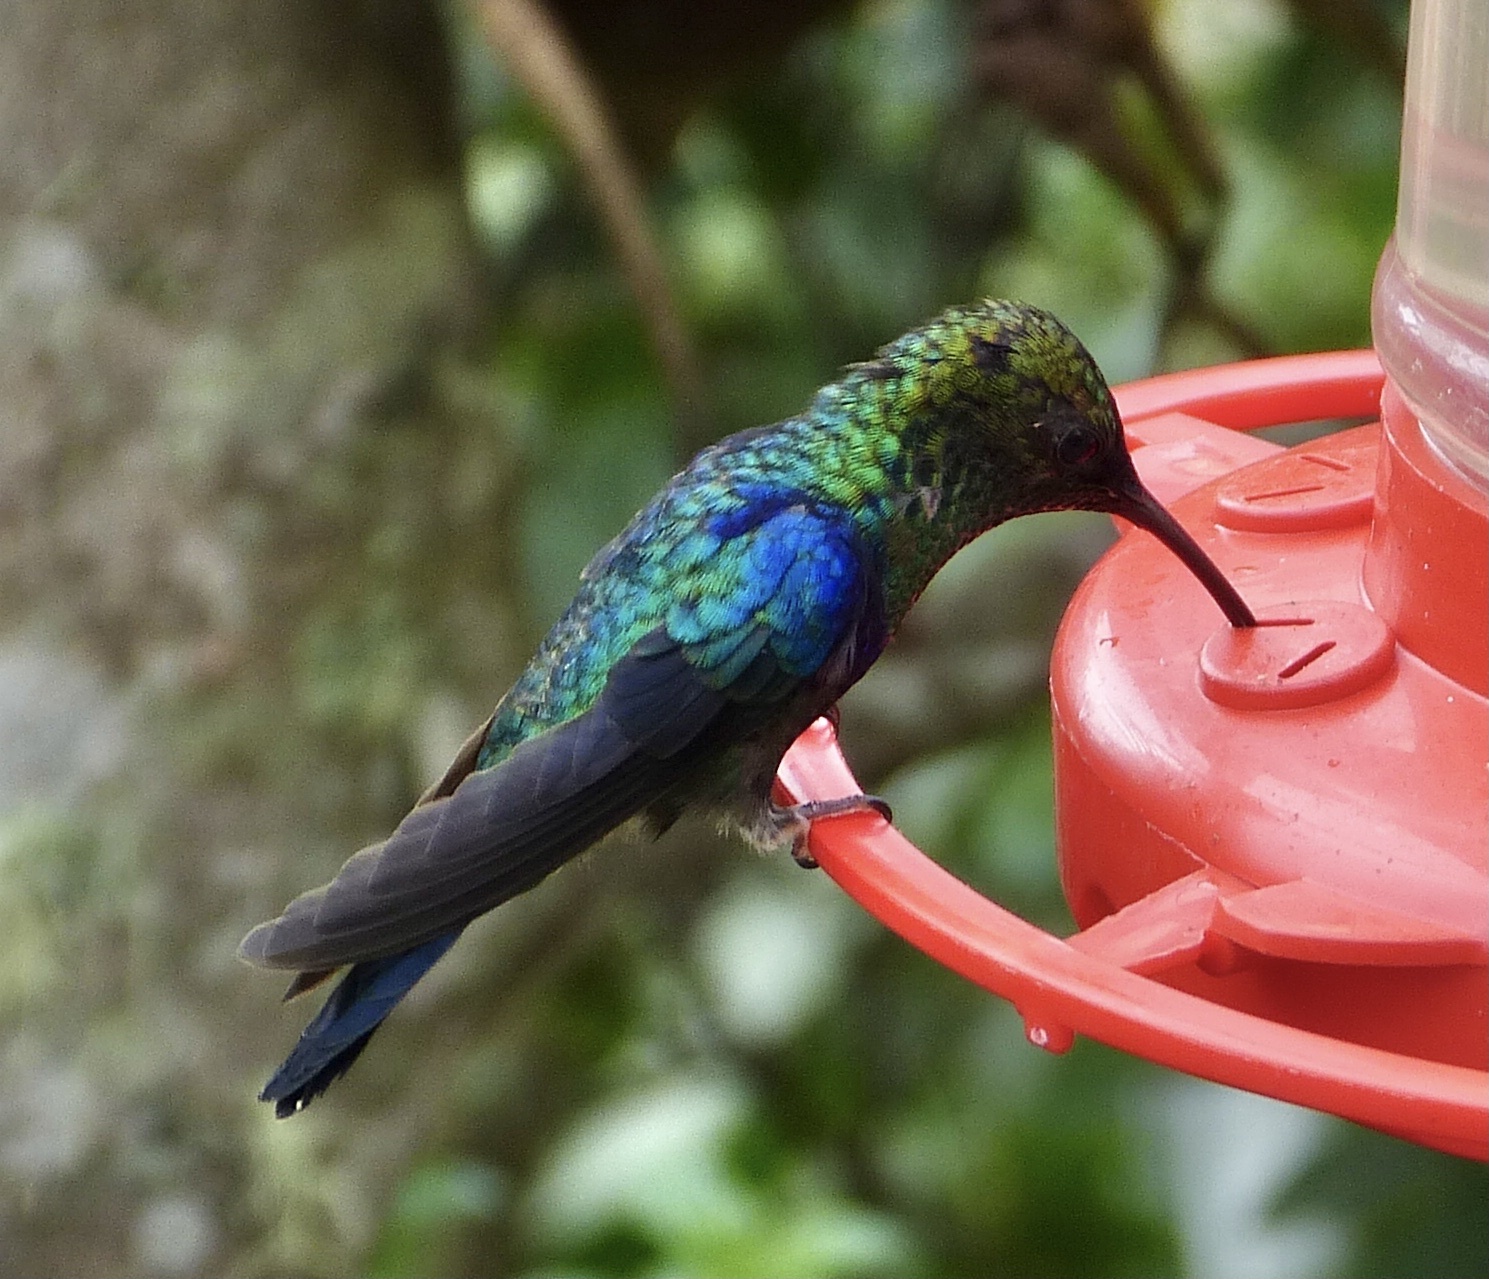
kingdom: Animalia
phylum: Chordata
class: Aves
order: Apodiformes
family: Trochilidae
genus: Thalurania
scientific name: Thalurania colombica
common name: Crowned woodnymph
